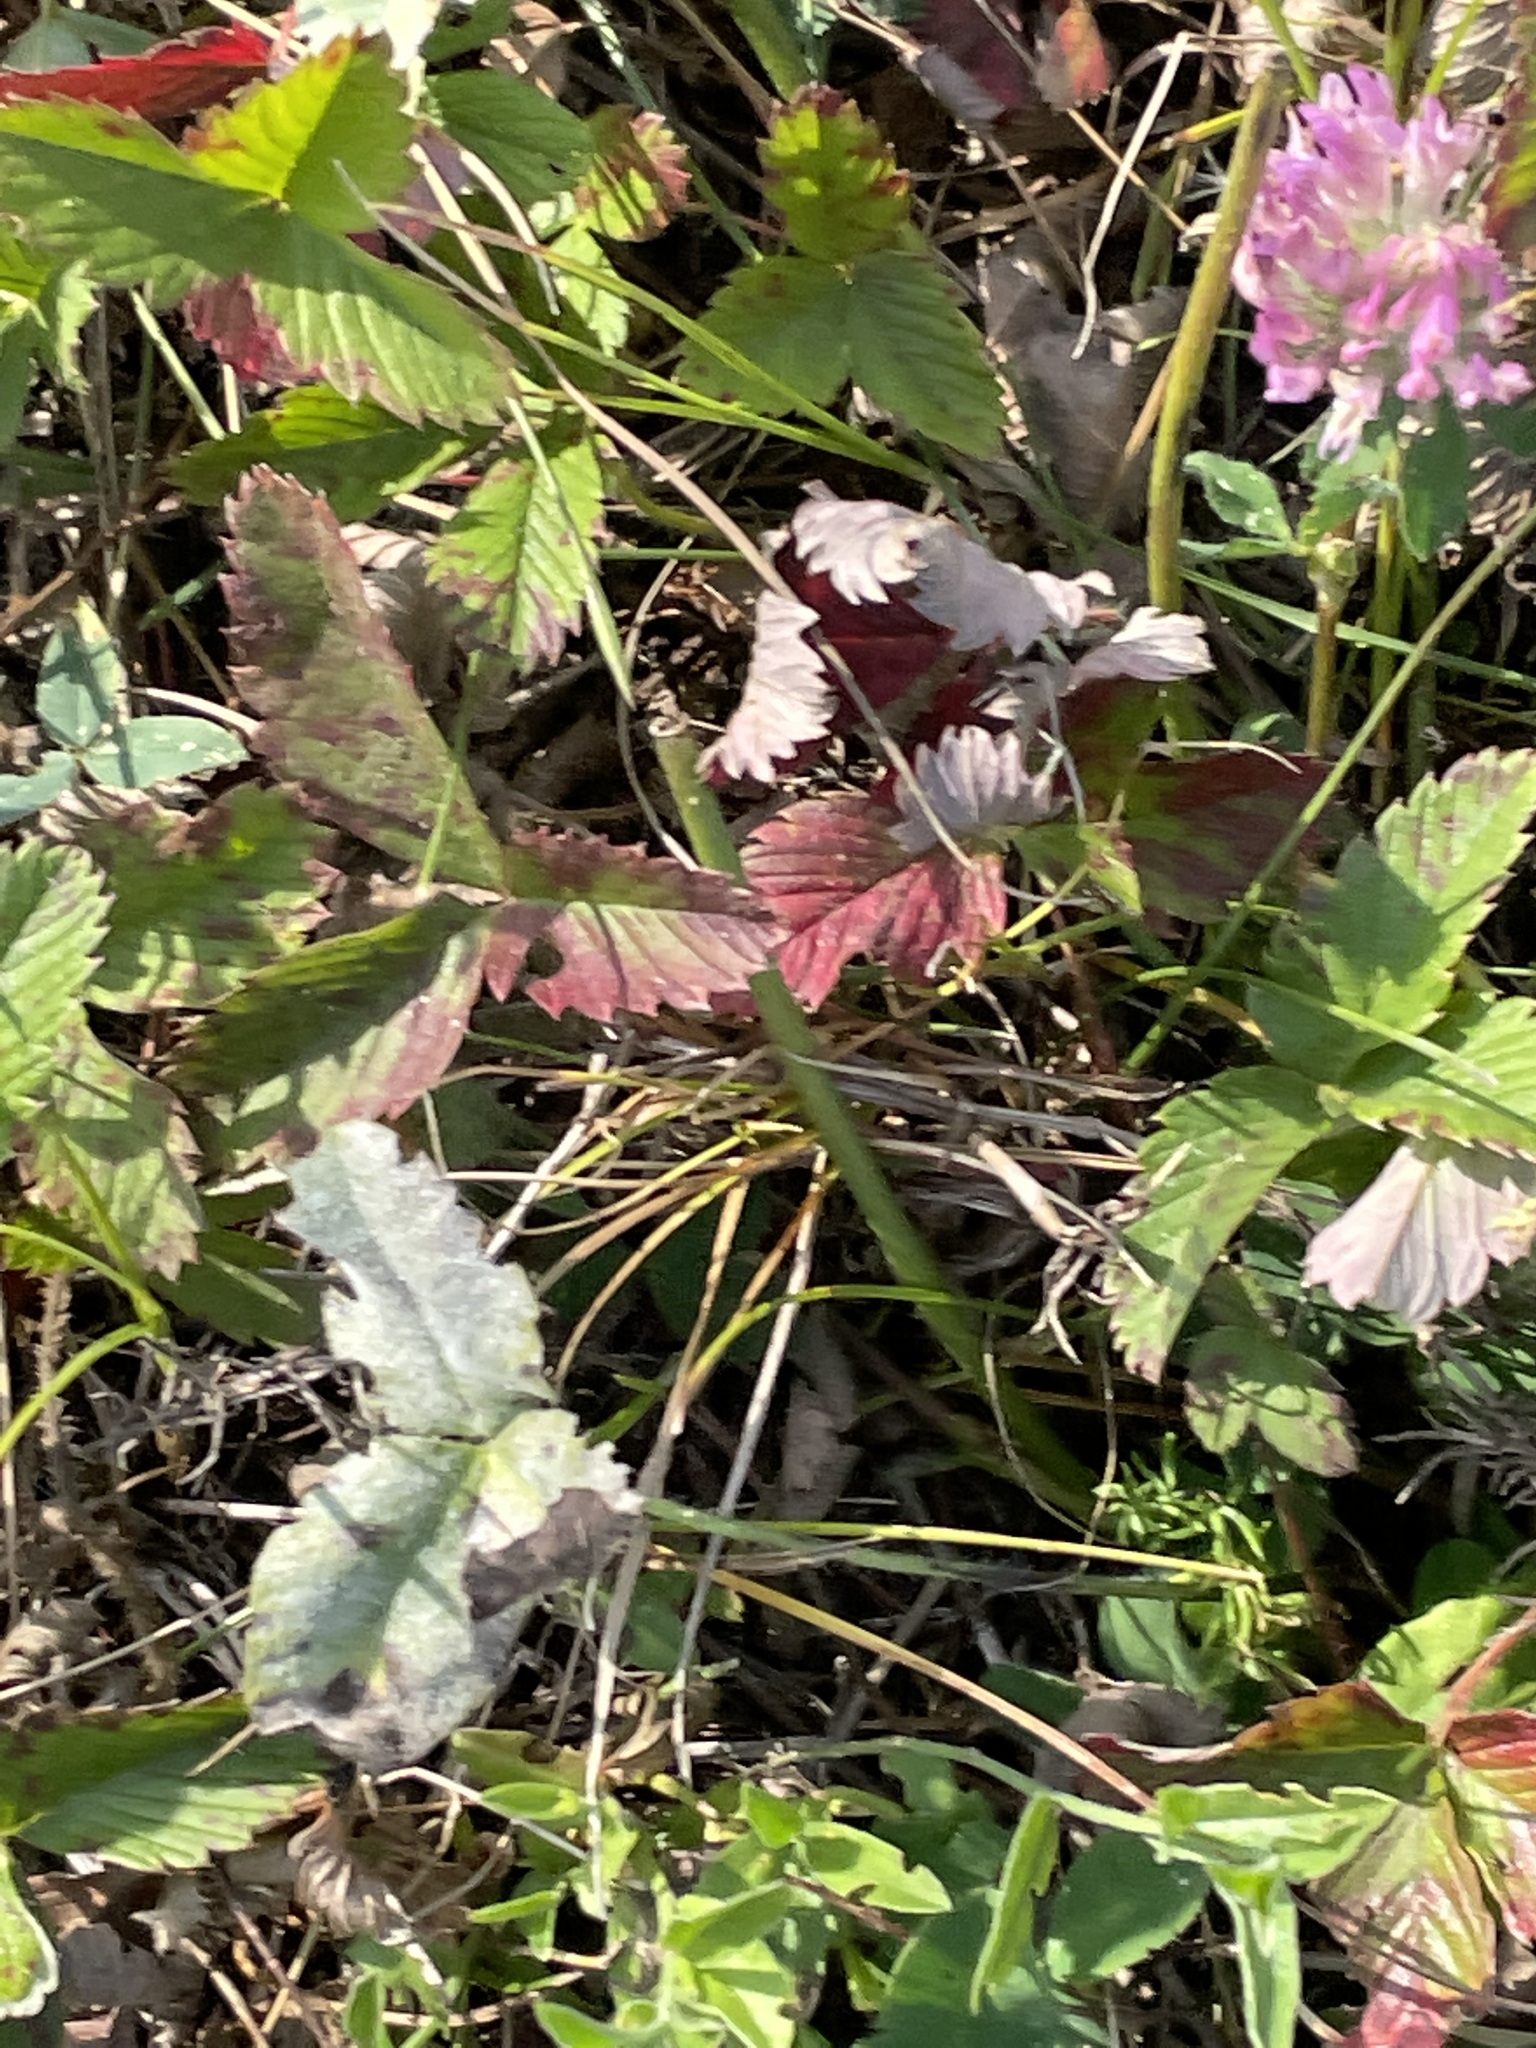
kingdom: Plantae
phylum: Tracheophyta
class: Magnoliopsida
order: Rosales
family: Rosaceae
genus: Fragaria
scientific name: Fragaria viridis
